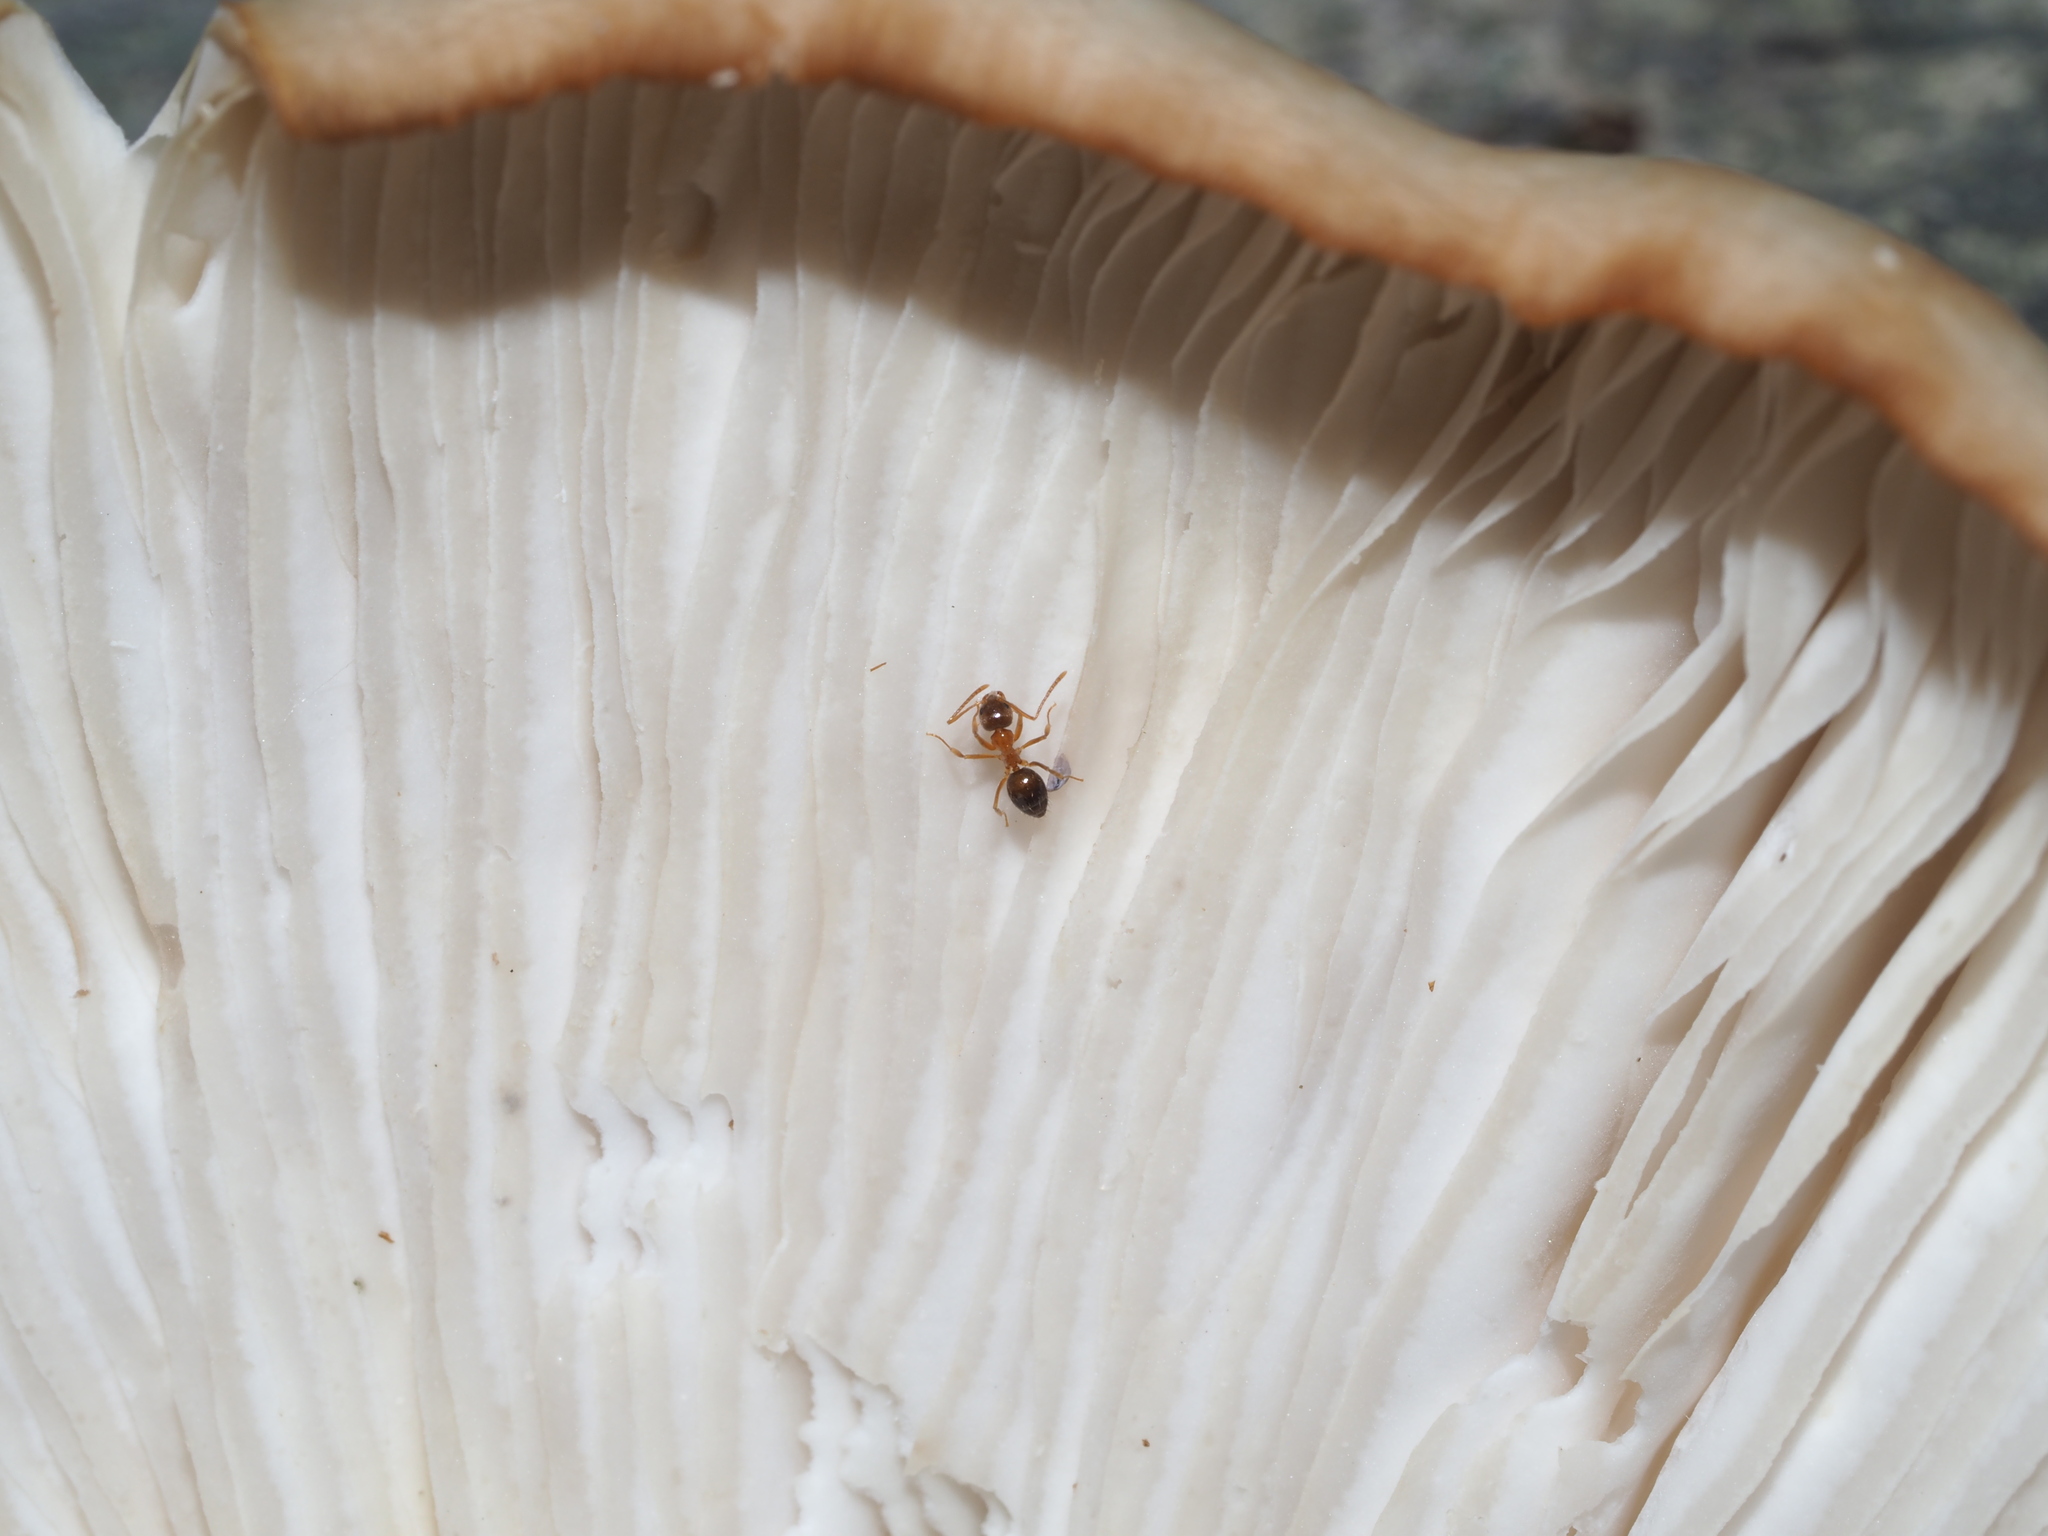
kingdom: Animalia
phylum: Arthropoda
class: Insecta
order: Hymenoptera
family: Formicidae
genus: Paratrechina
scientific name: Paratrechina flavipes
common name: Eastern asian formicine ant
